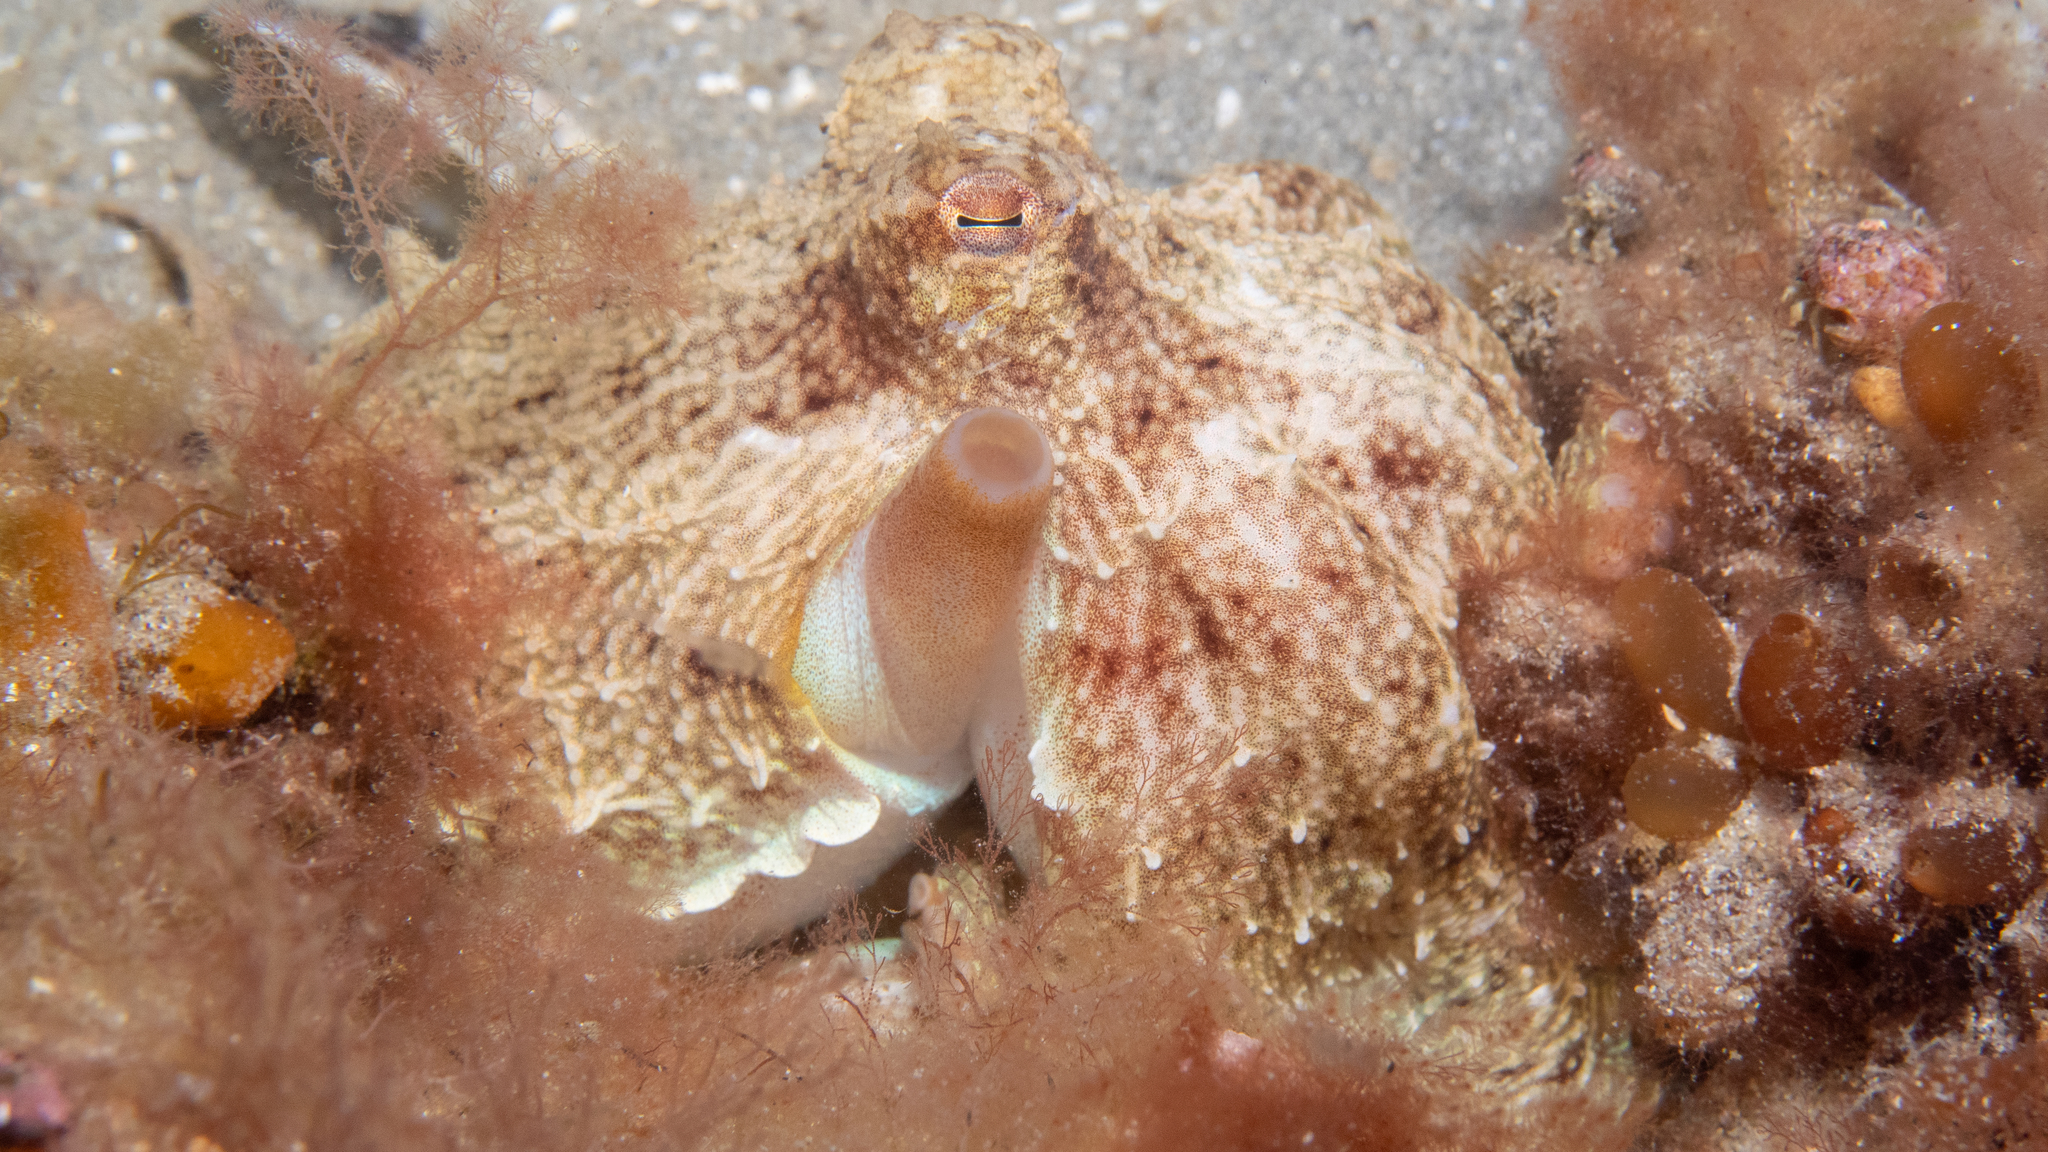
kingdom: Animalia
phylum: Mollusca
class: Cephalopoda
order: Octopoda
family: Octopodidae
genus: Octopus
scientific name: Octopus berrima
